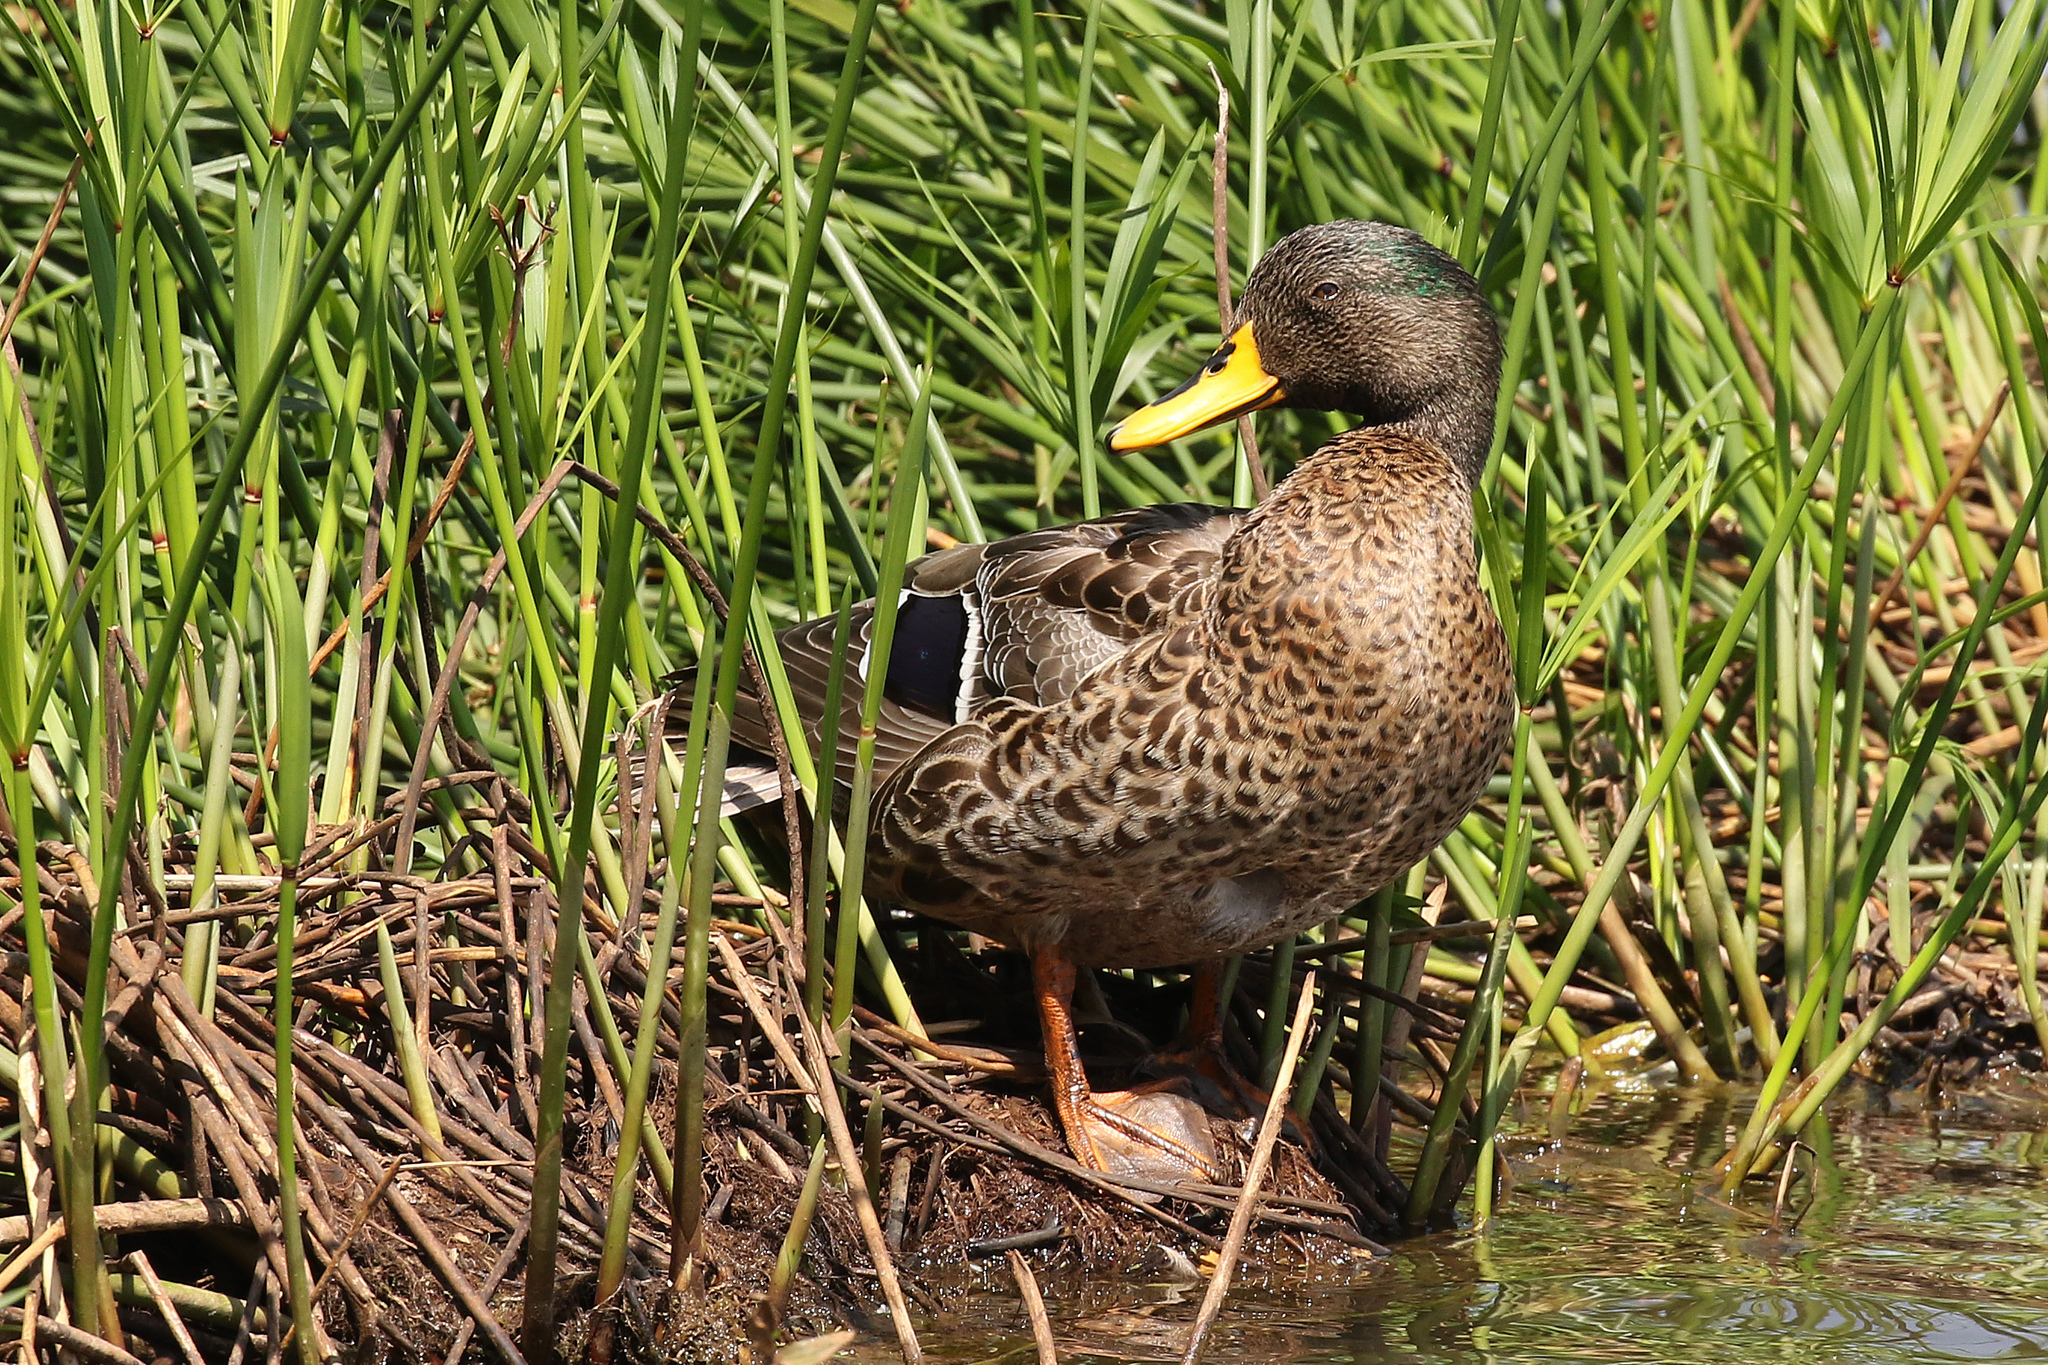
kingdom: Animalia
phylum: Chordata
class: Aves
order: Anseriformes
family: Anatidae
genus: Anas
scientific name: Anas undulata
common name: Yellow-billed duck
